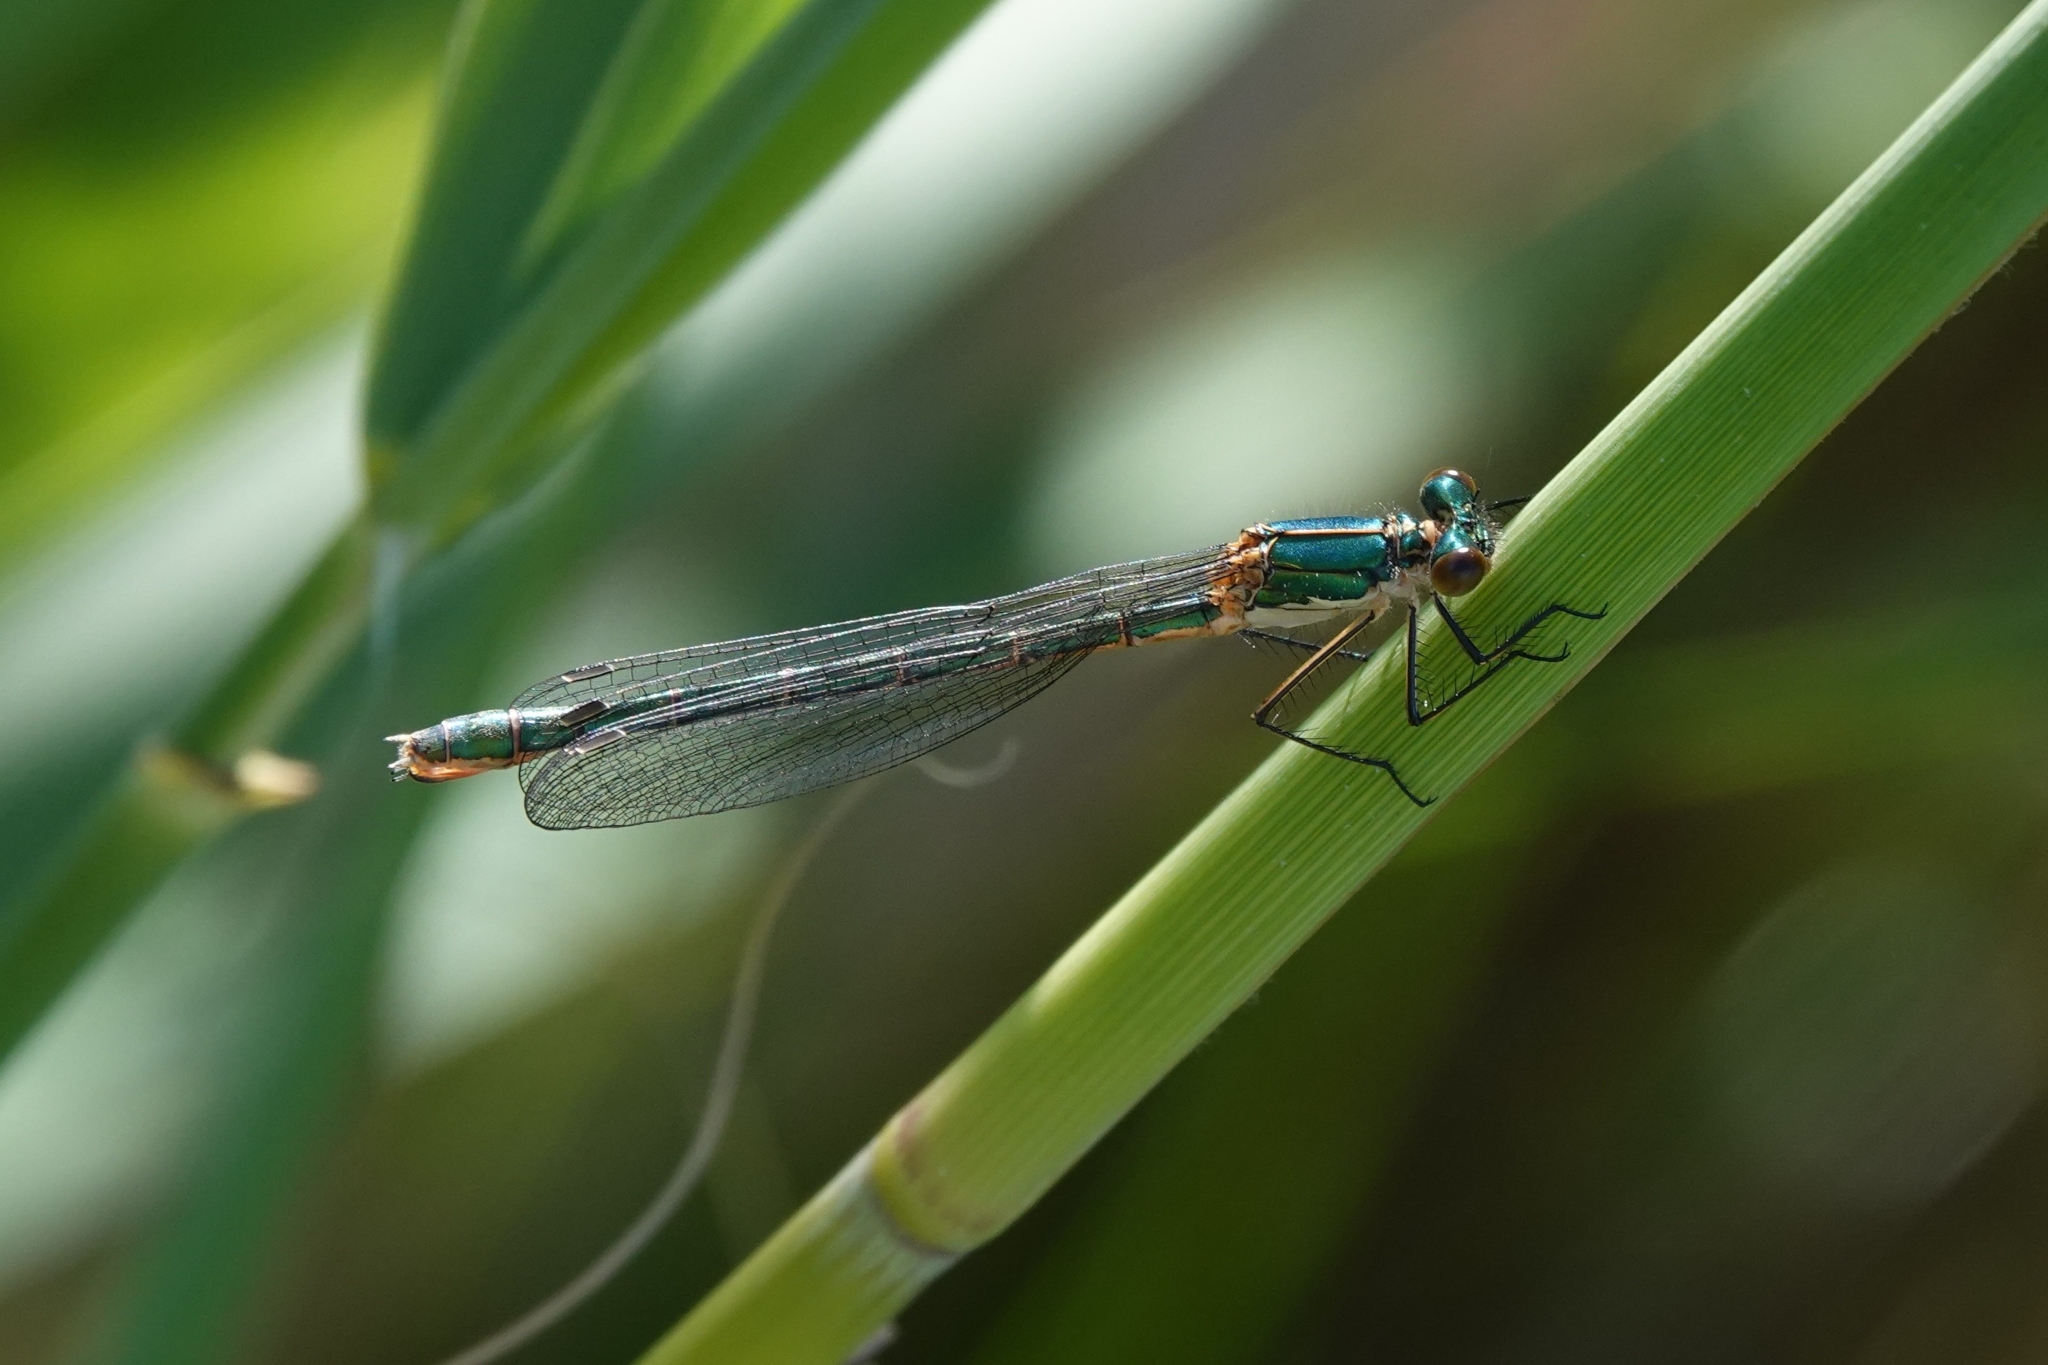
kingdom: Animalia
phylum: Arthropoda
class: Insecta
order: Odonata
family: Lestidae
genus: Lestes
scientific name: Lestes dryas
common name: Scarce emerald damselfly
